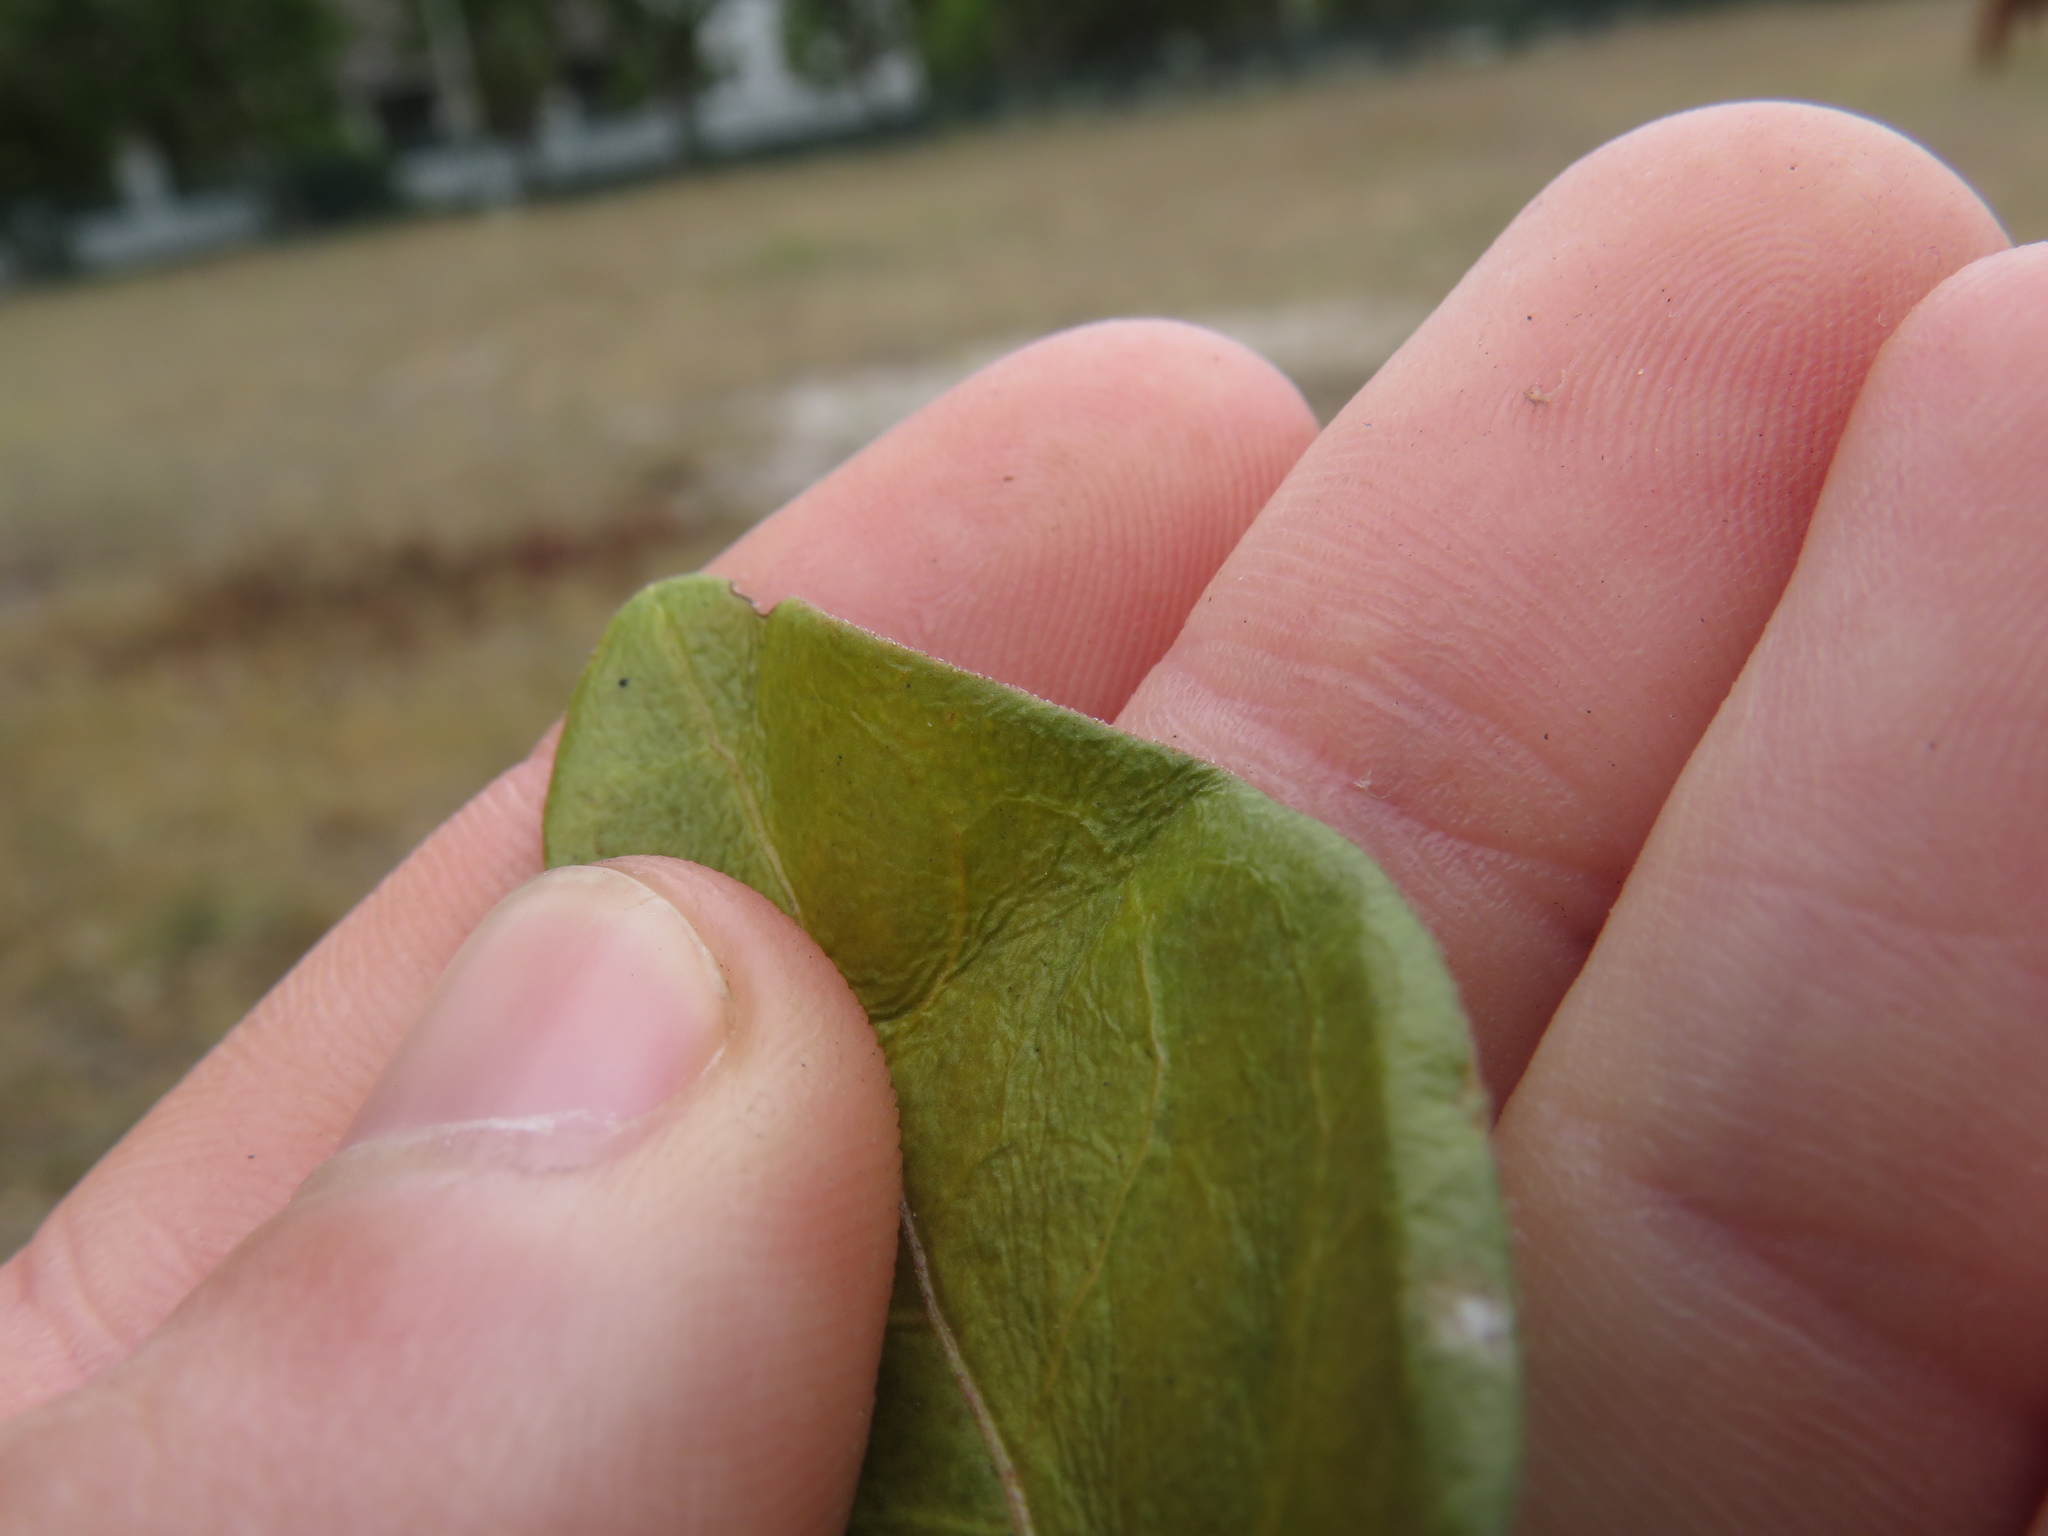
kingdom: Plantae
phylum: Tracheophyta
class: Magnoliopsida
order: Gentianales
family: Apocynaceae
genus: Vinca
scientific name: Vinca major
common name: Greater periwinkle
